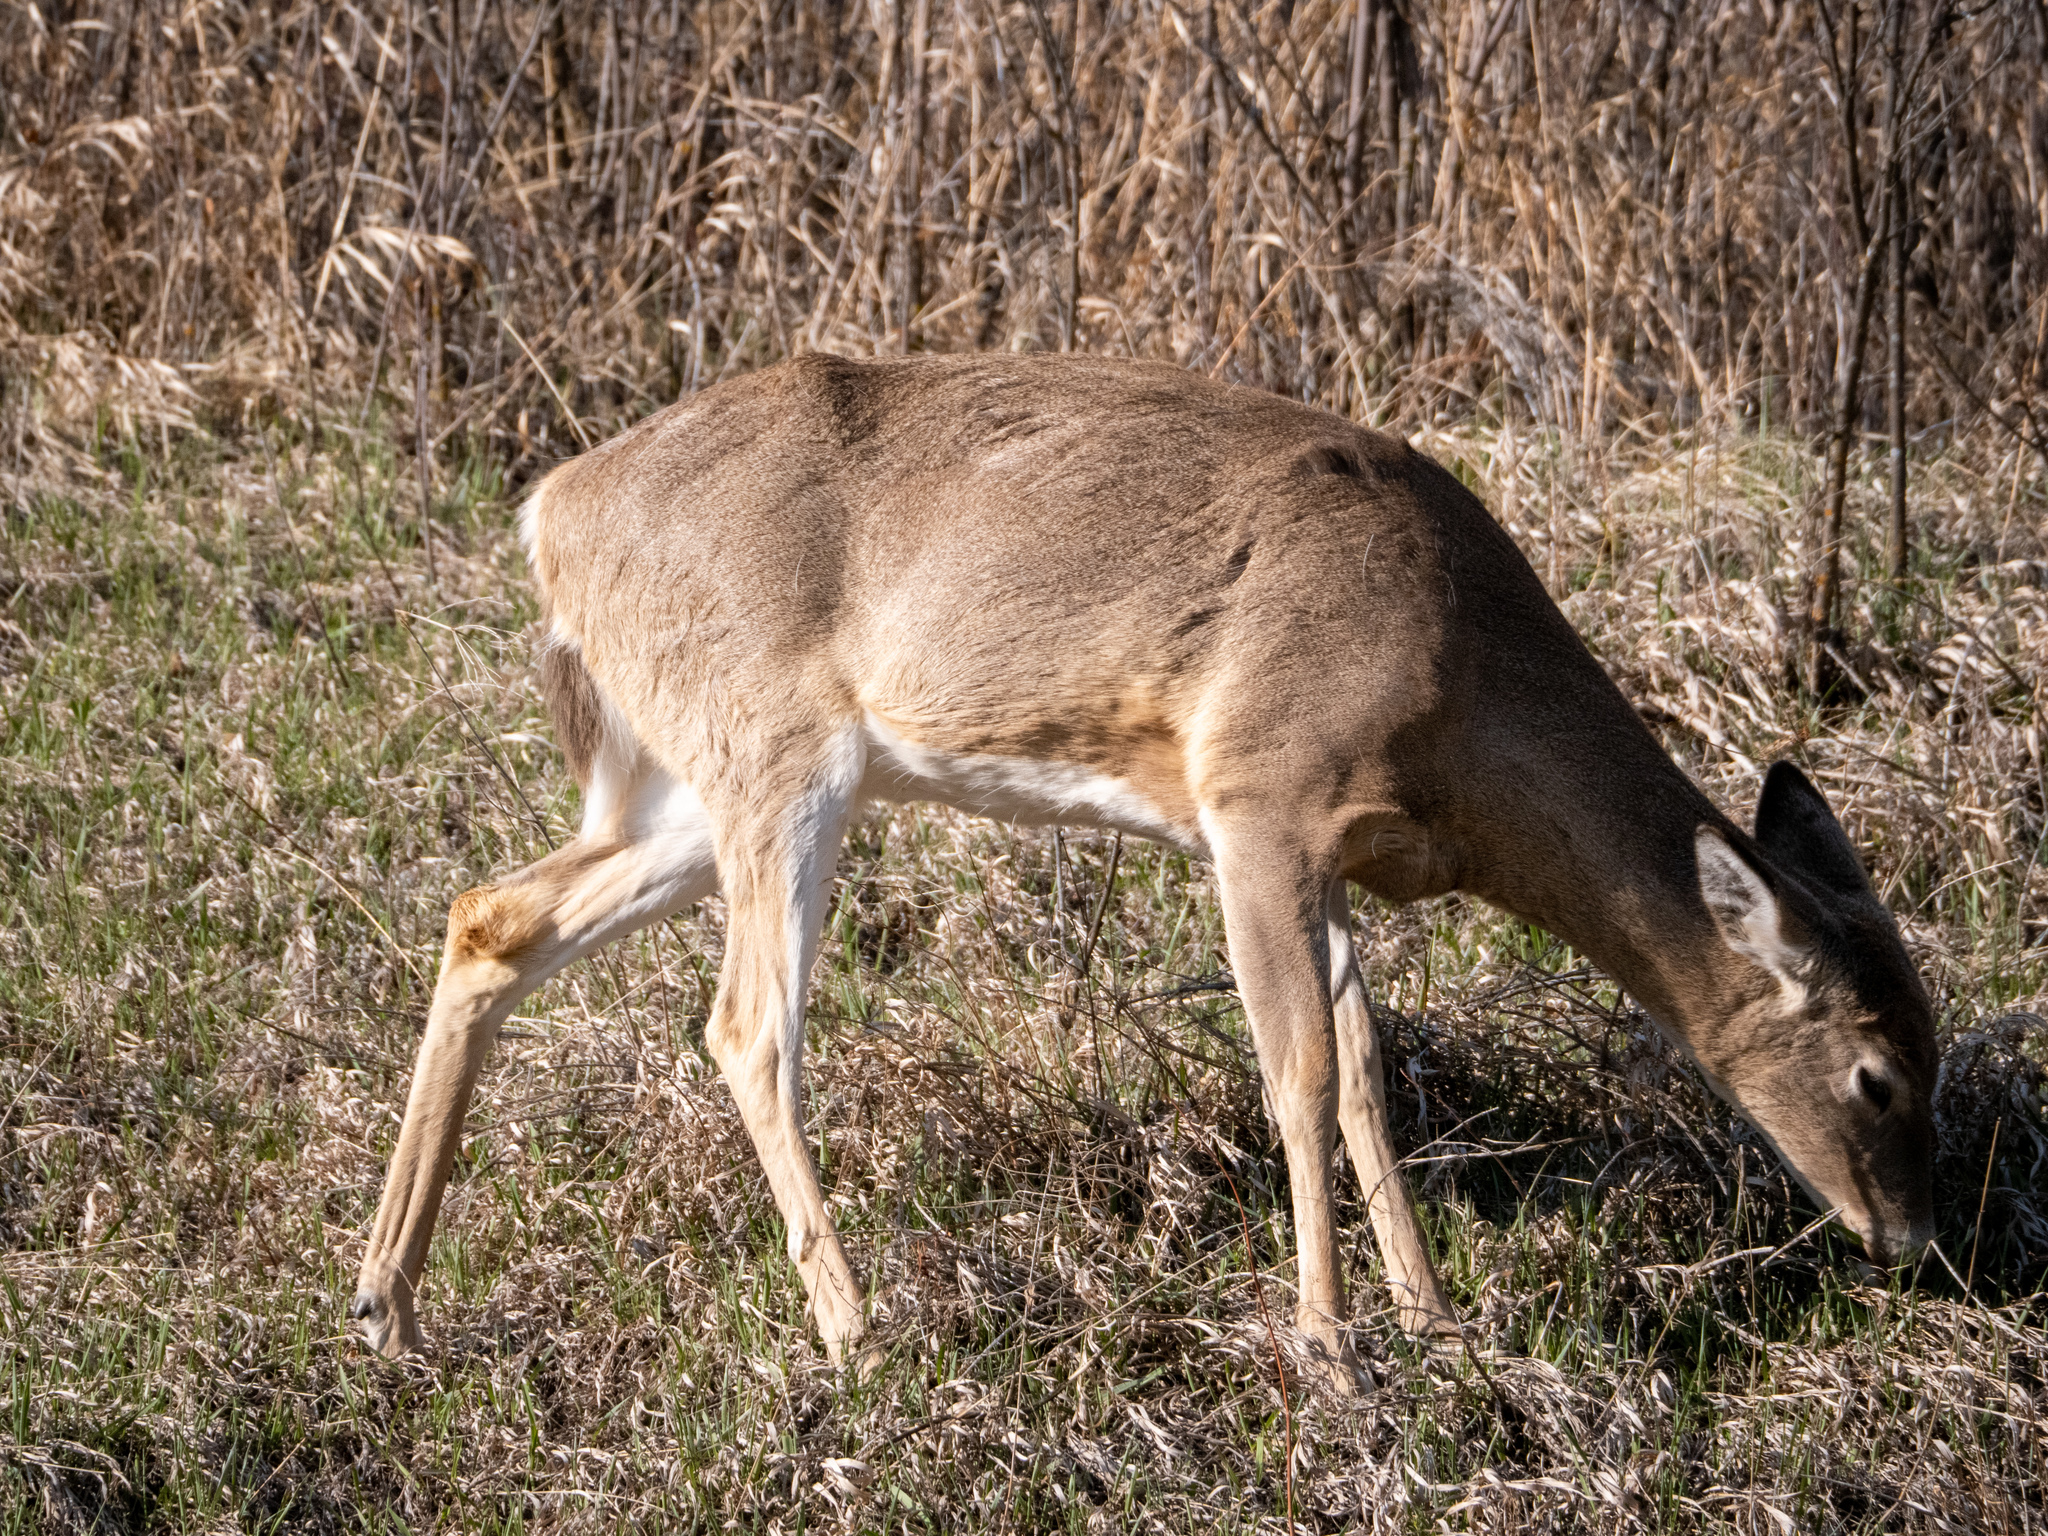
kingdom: Animalia
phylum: Chordata
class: Mammalia
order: Artiodactyla
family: Cervidae
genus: Odocoileus
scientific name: Odocoileus virginianus
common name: White-tailed deer
